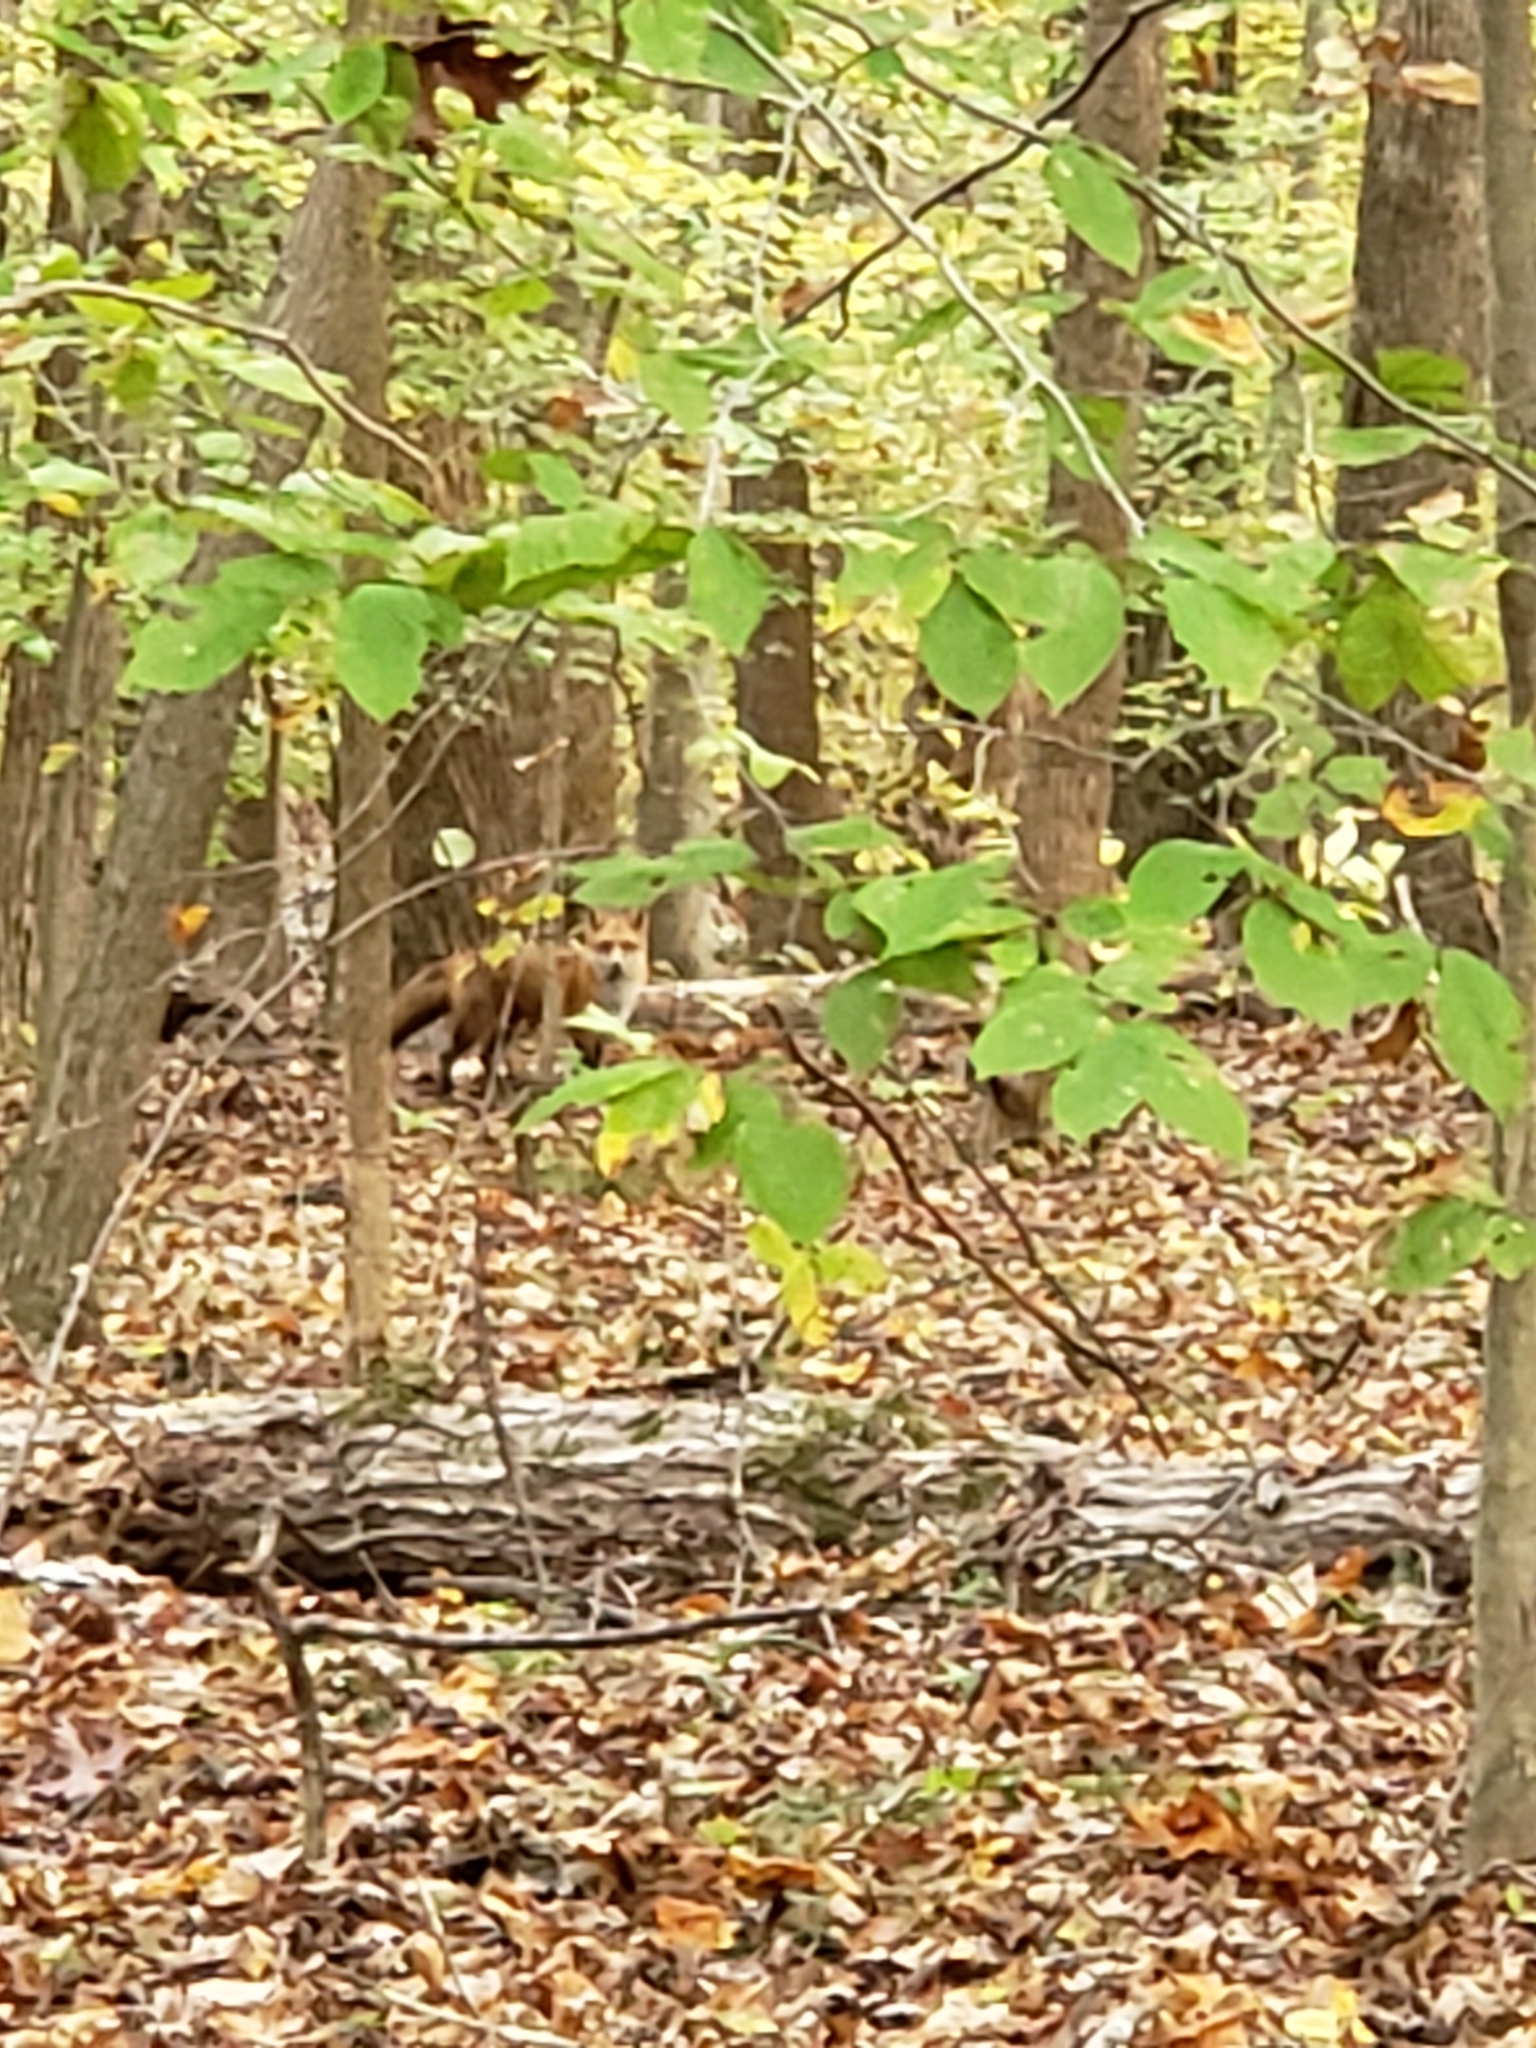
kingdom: Animalia
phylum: Chordata
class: Mammalia
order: Carnivora
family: Canidae
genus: Vulpes
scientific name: Vulpes vulpes
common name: Red fox
